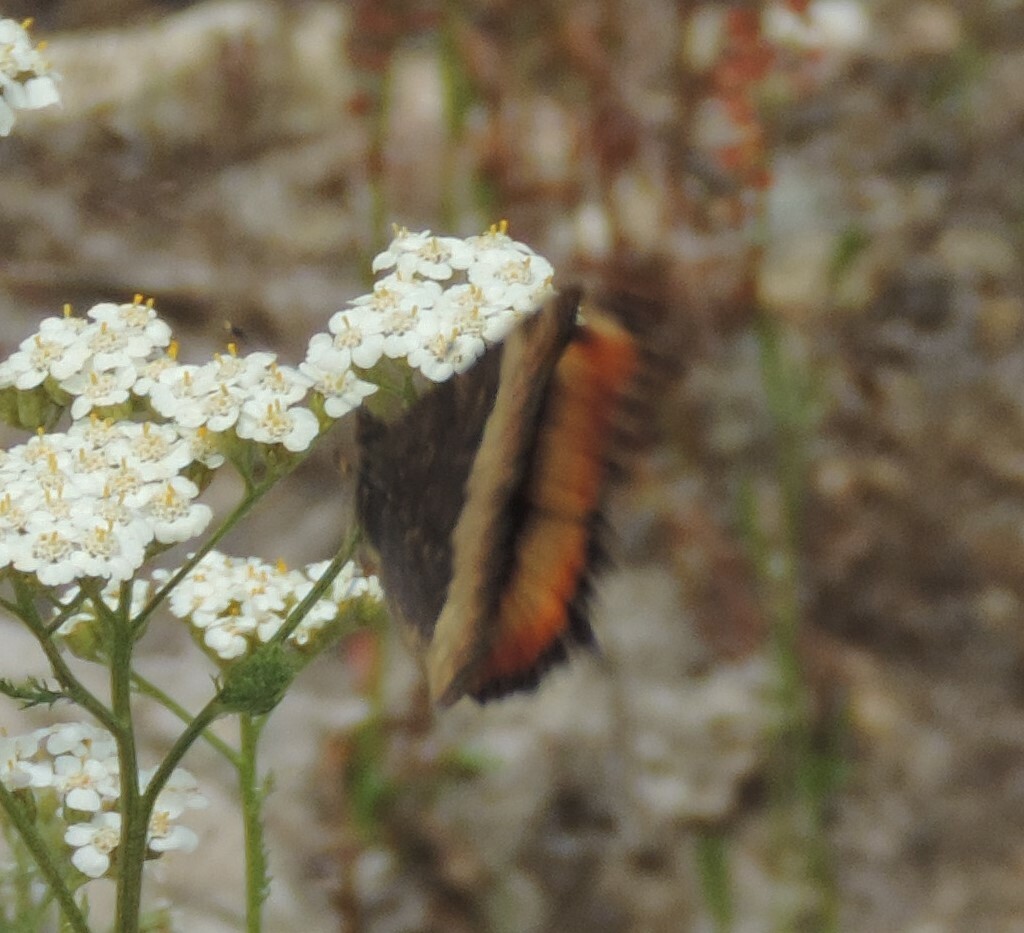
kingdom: Animalia
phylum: Arthropoda
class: Insecta
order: Lepidoptera
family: Nymphalidae
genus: Aglais
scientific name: Aglais milberti
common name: Milbert's tortoiseshell
